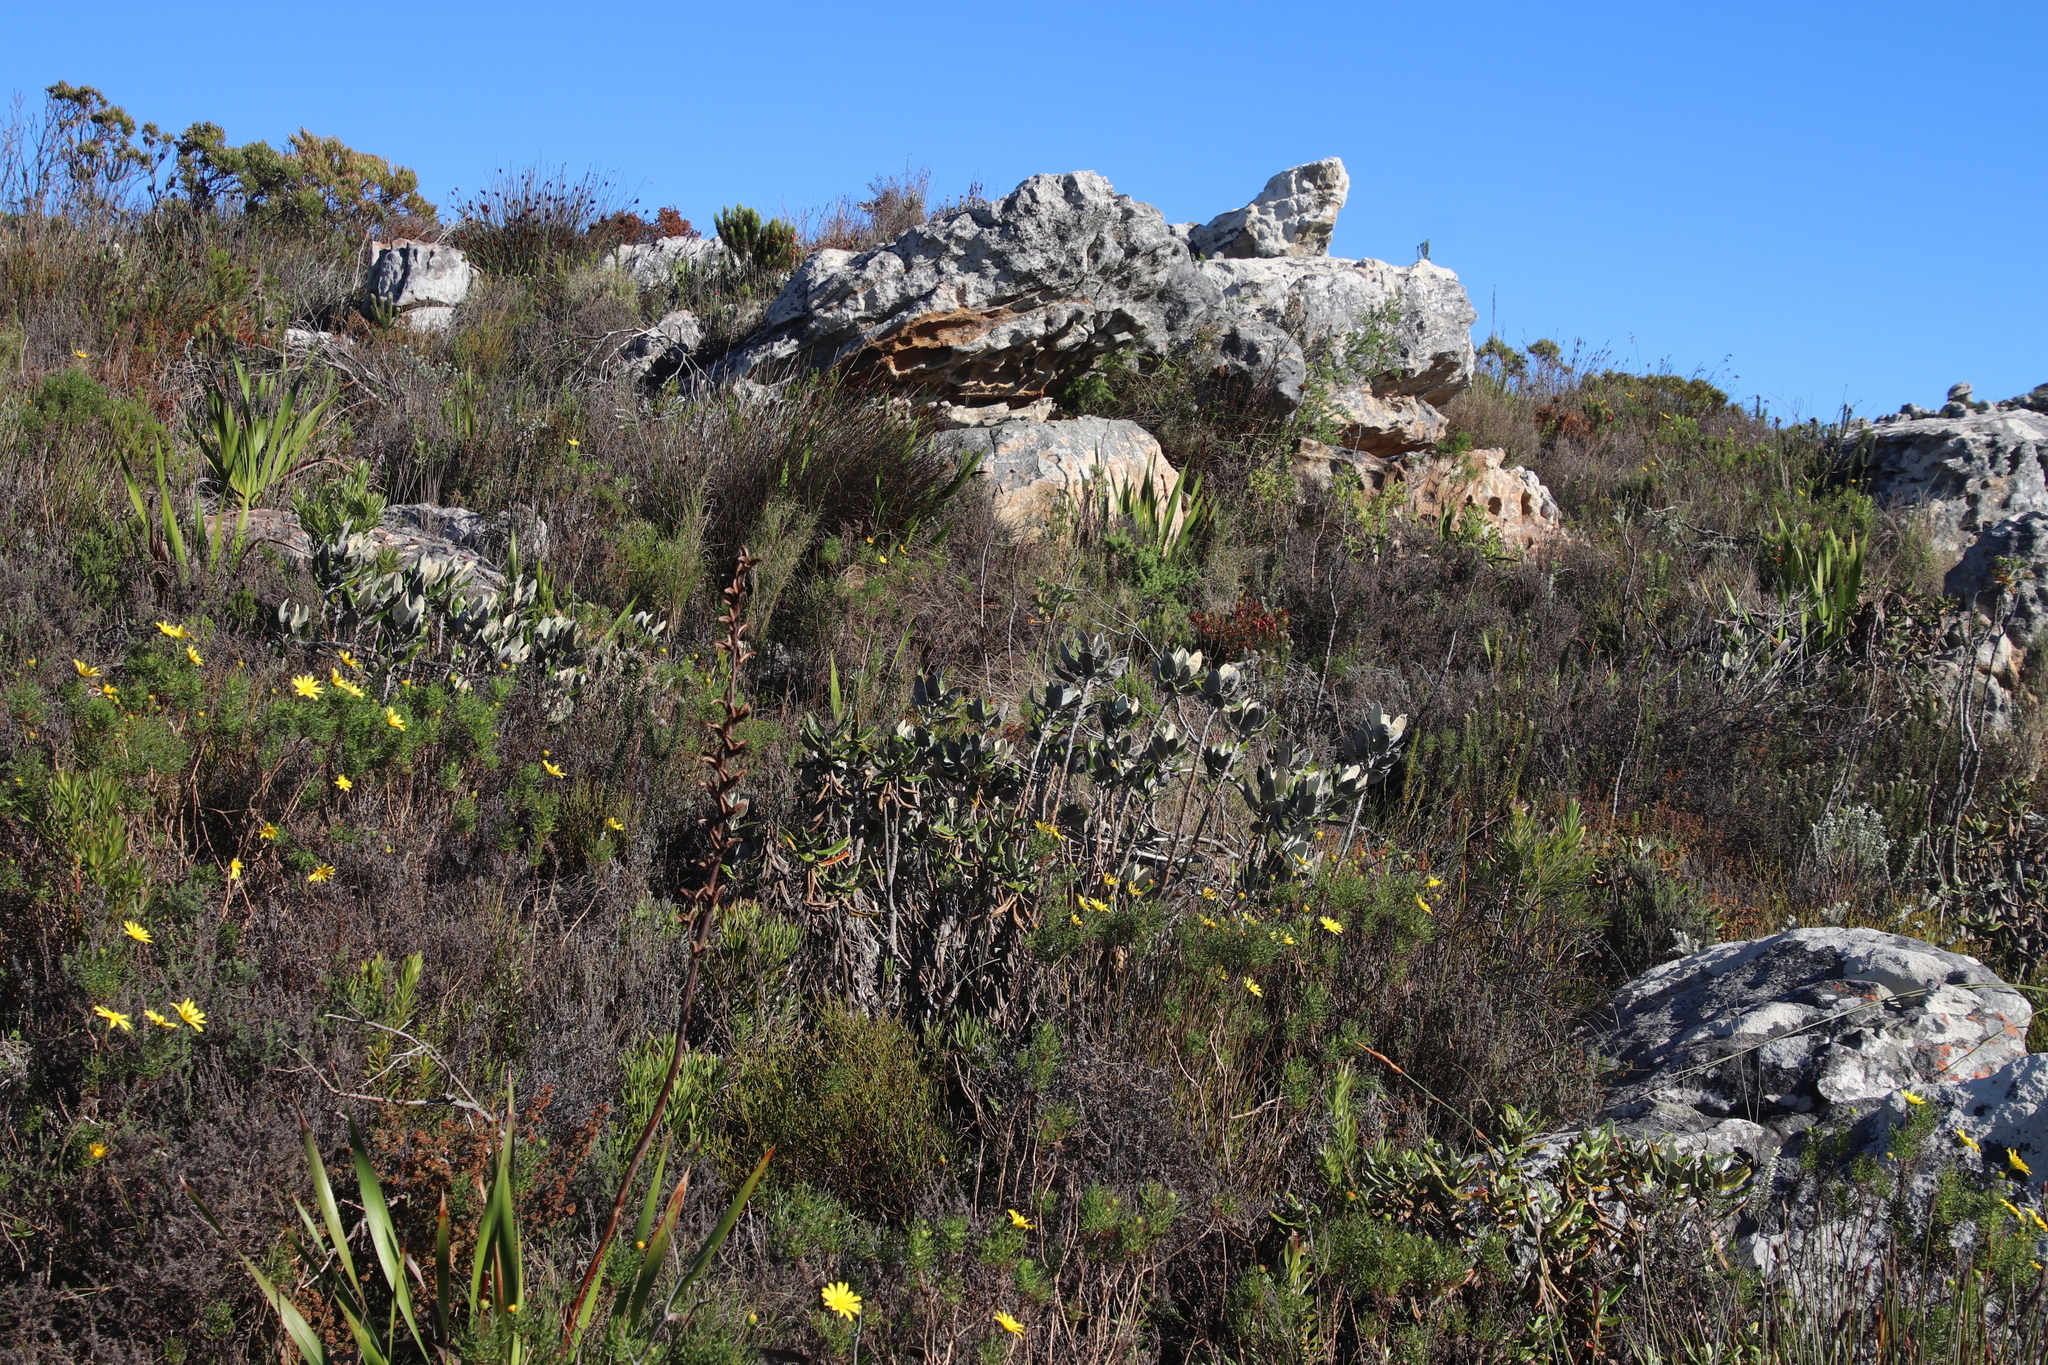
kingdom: Plantae
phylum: Tracheophyta
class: Magnoliopsida
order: Asterales
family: Asteraceae
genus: Capelio
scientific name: Capelio tabularis
